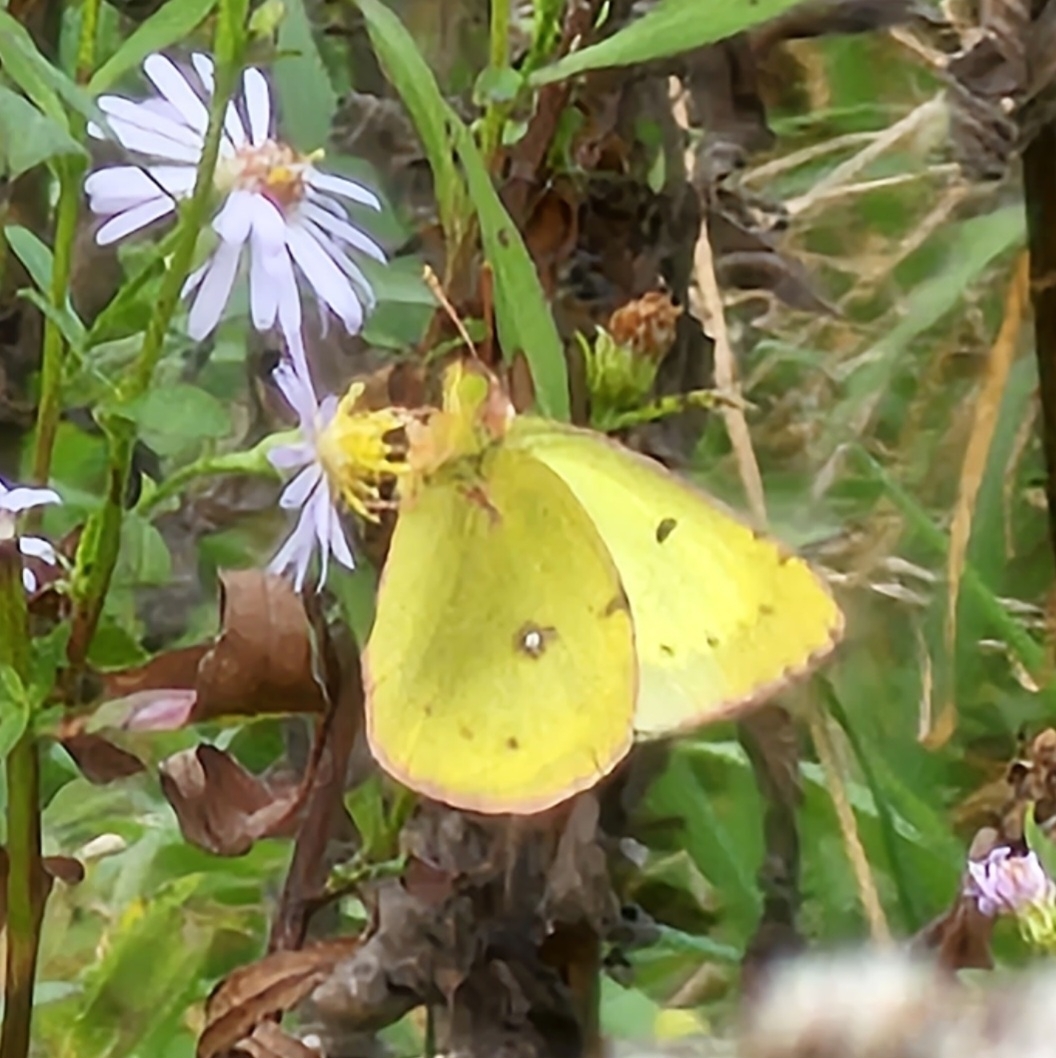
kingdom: Animalia
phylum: Arthropoda
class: Insecta
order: Lepidoptera
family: Pieridae
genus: Colias
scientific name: Colias philodice
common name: Clouded sulphur
